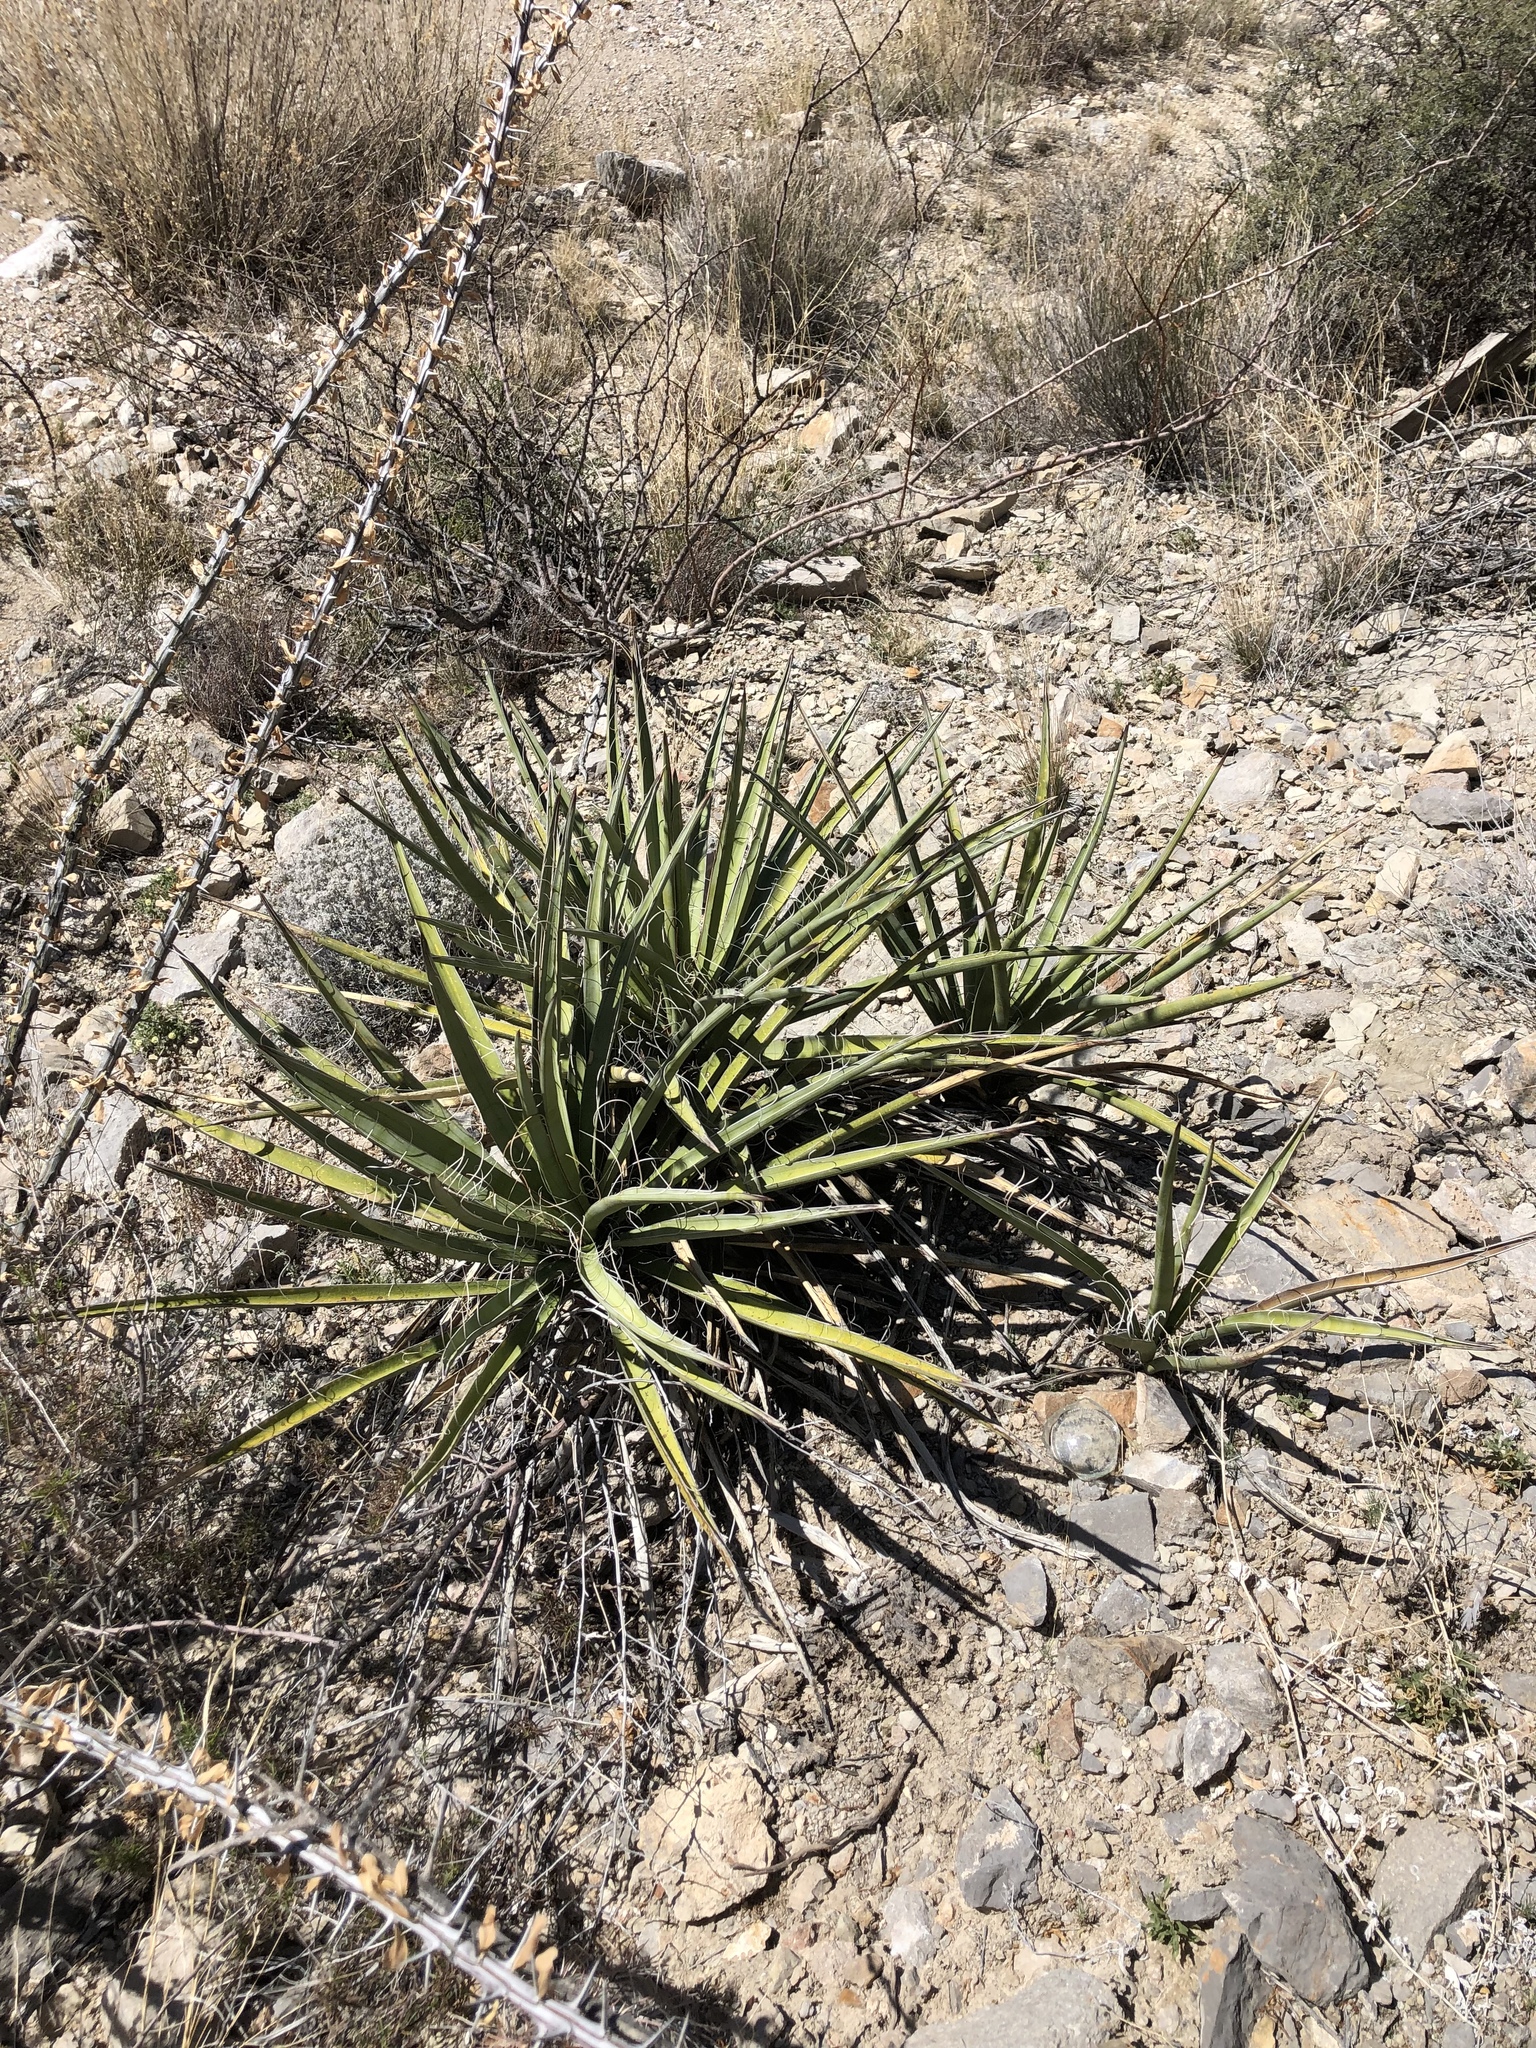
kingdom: Plantae
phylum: Tracheophyta
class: Liliopsida
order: Asparagales
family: Asparagaceae
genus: Yucca
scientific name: Yucca baccata
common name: Banana yucca
